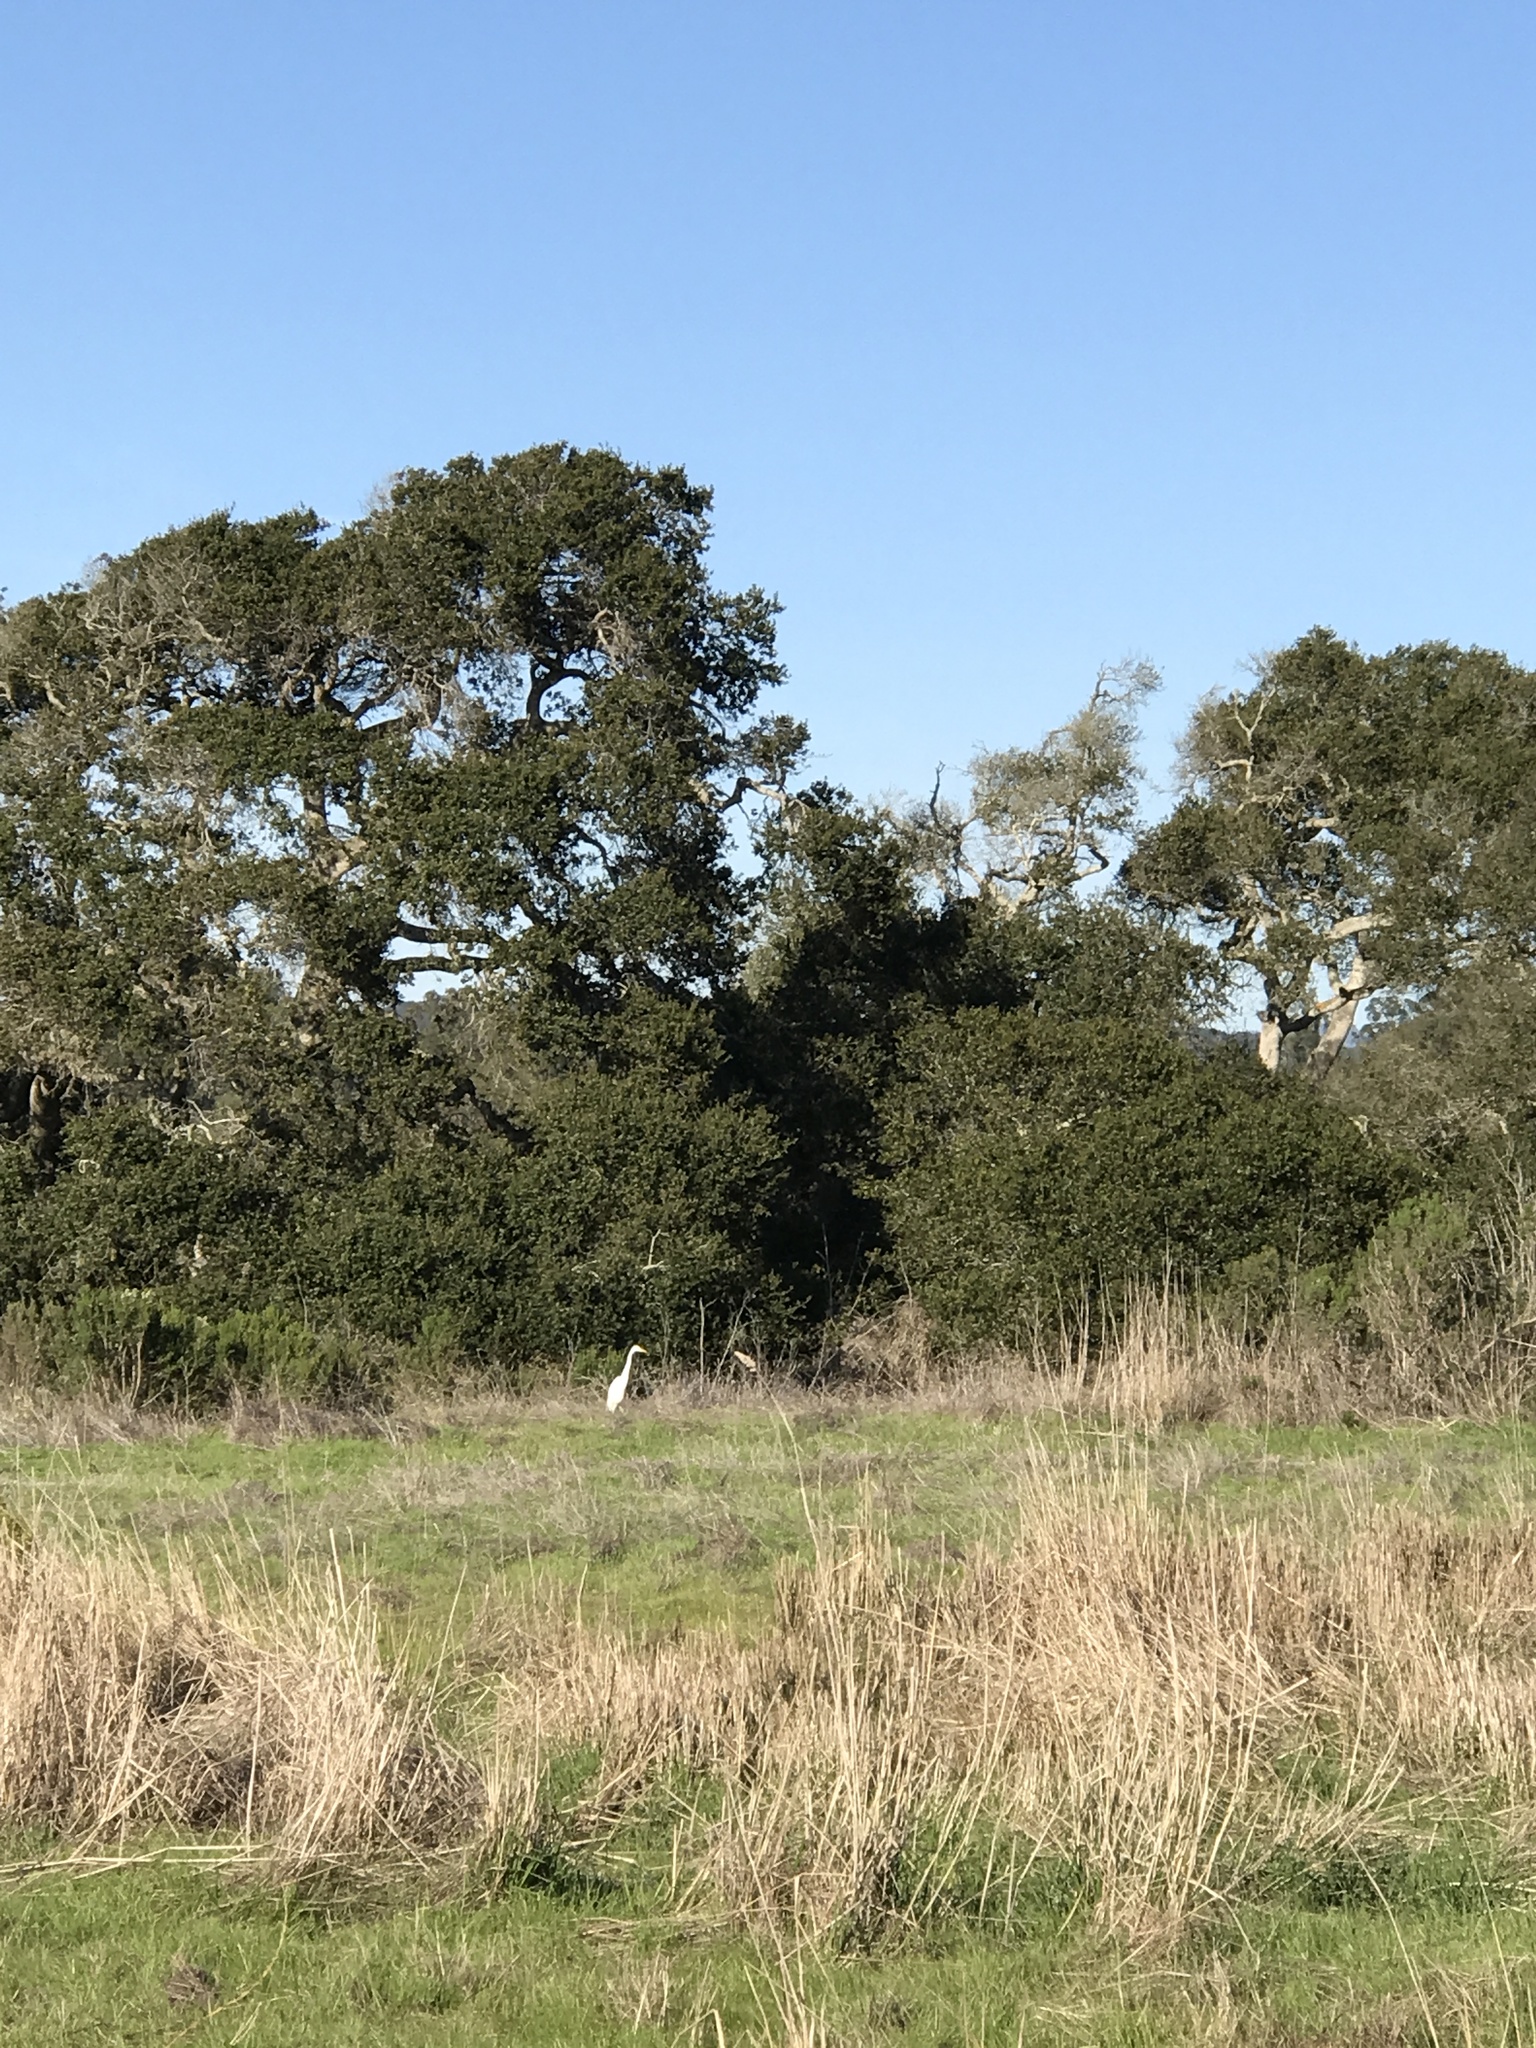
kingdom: Animalia
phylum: Chordata
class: Aves
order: Pelecaniformes
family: Ardeidae
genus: Ardea
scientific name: Ardea alba
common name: Great egret
